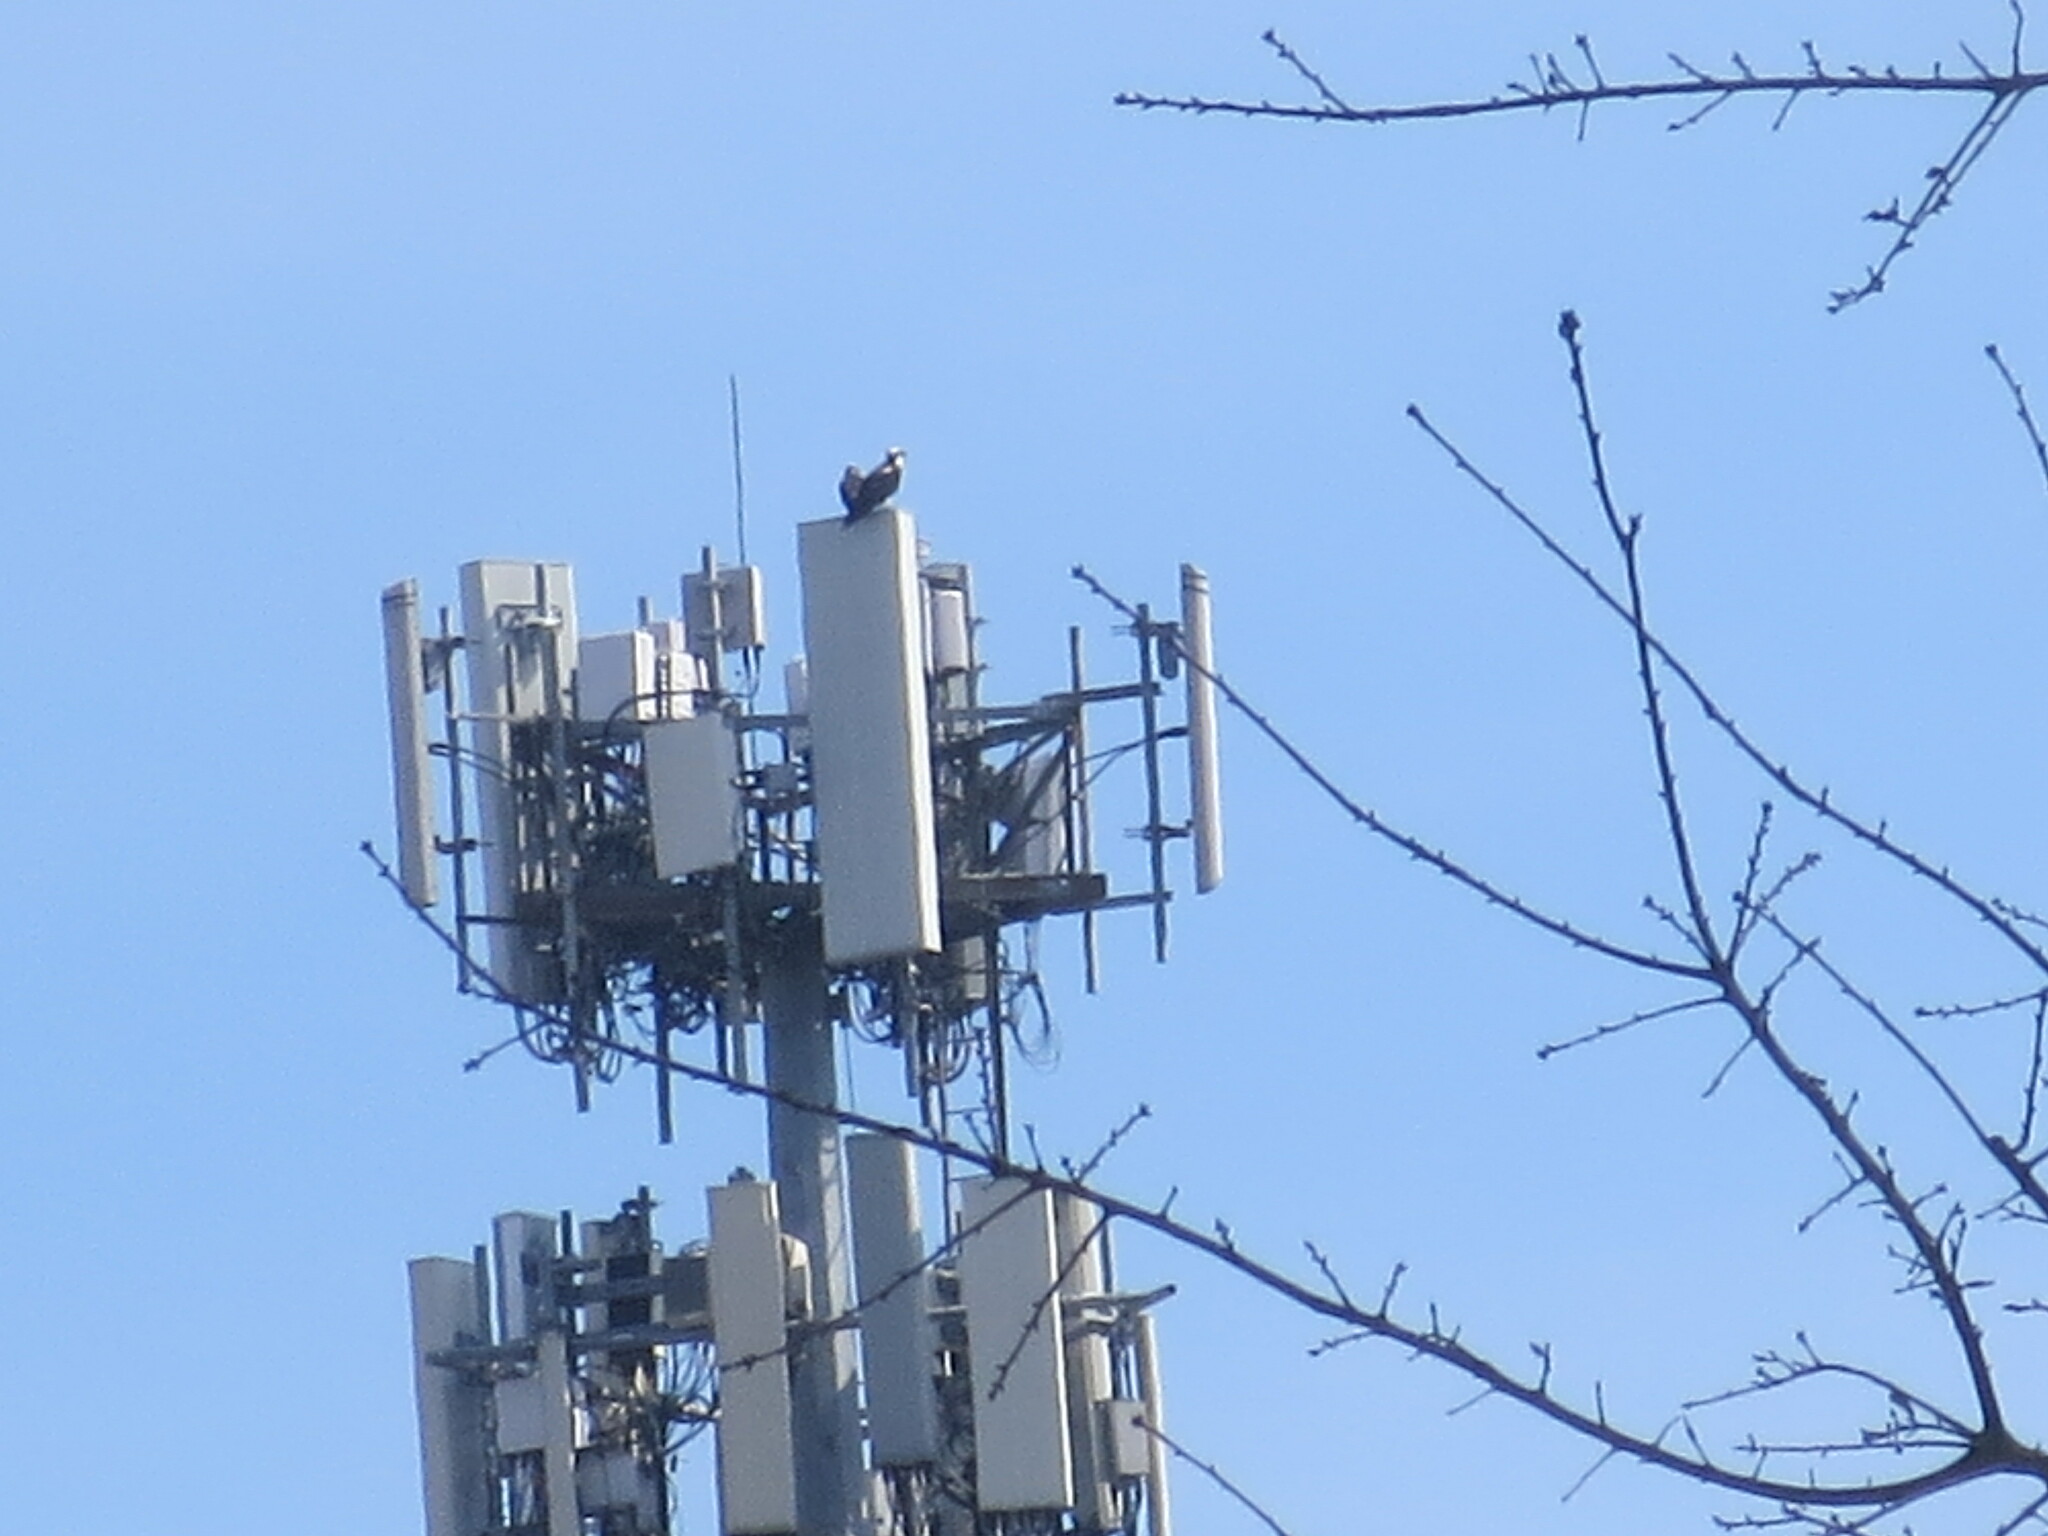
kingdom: Animalia
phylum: Chordata
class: Aves
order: Accipitriformes
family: Pandionidae
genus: Pandion
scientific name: Pandion haliaetus
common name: Osprey
